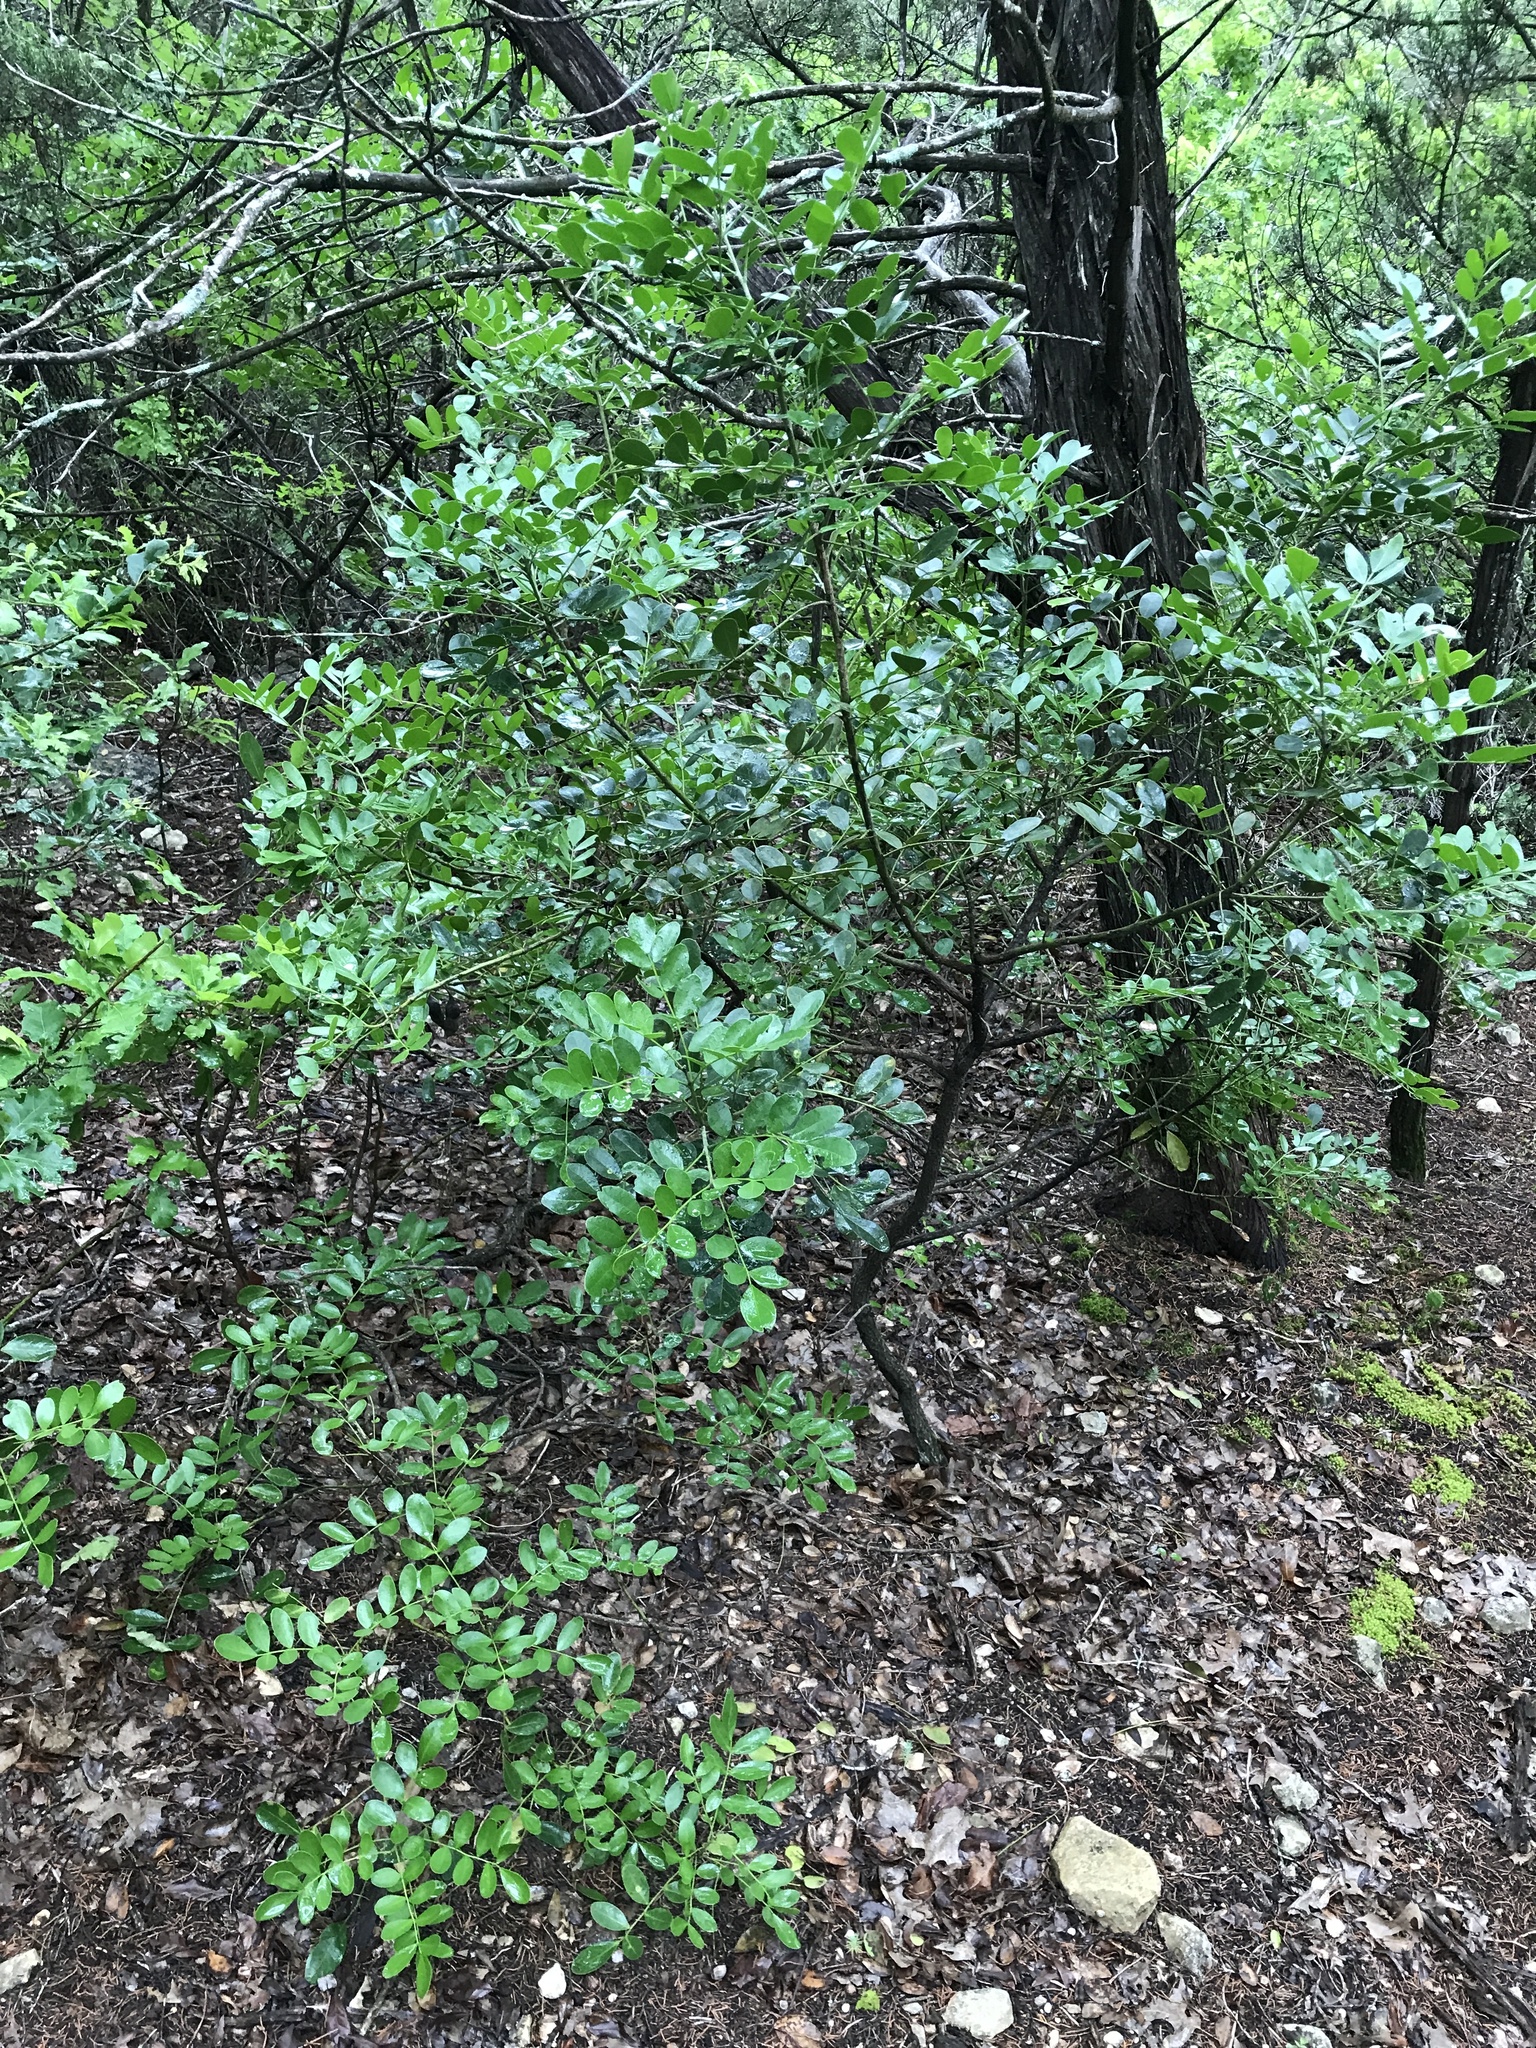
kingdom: Plantae
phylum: Tracheophyta
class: Magnoliopsida
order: Fabales
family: Fabaceae
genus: Dermatophyllum
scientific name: Dermatophyllum secundiflorum
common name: Texas-mountain-laurel
